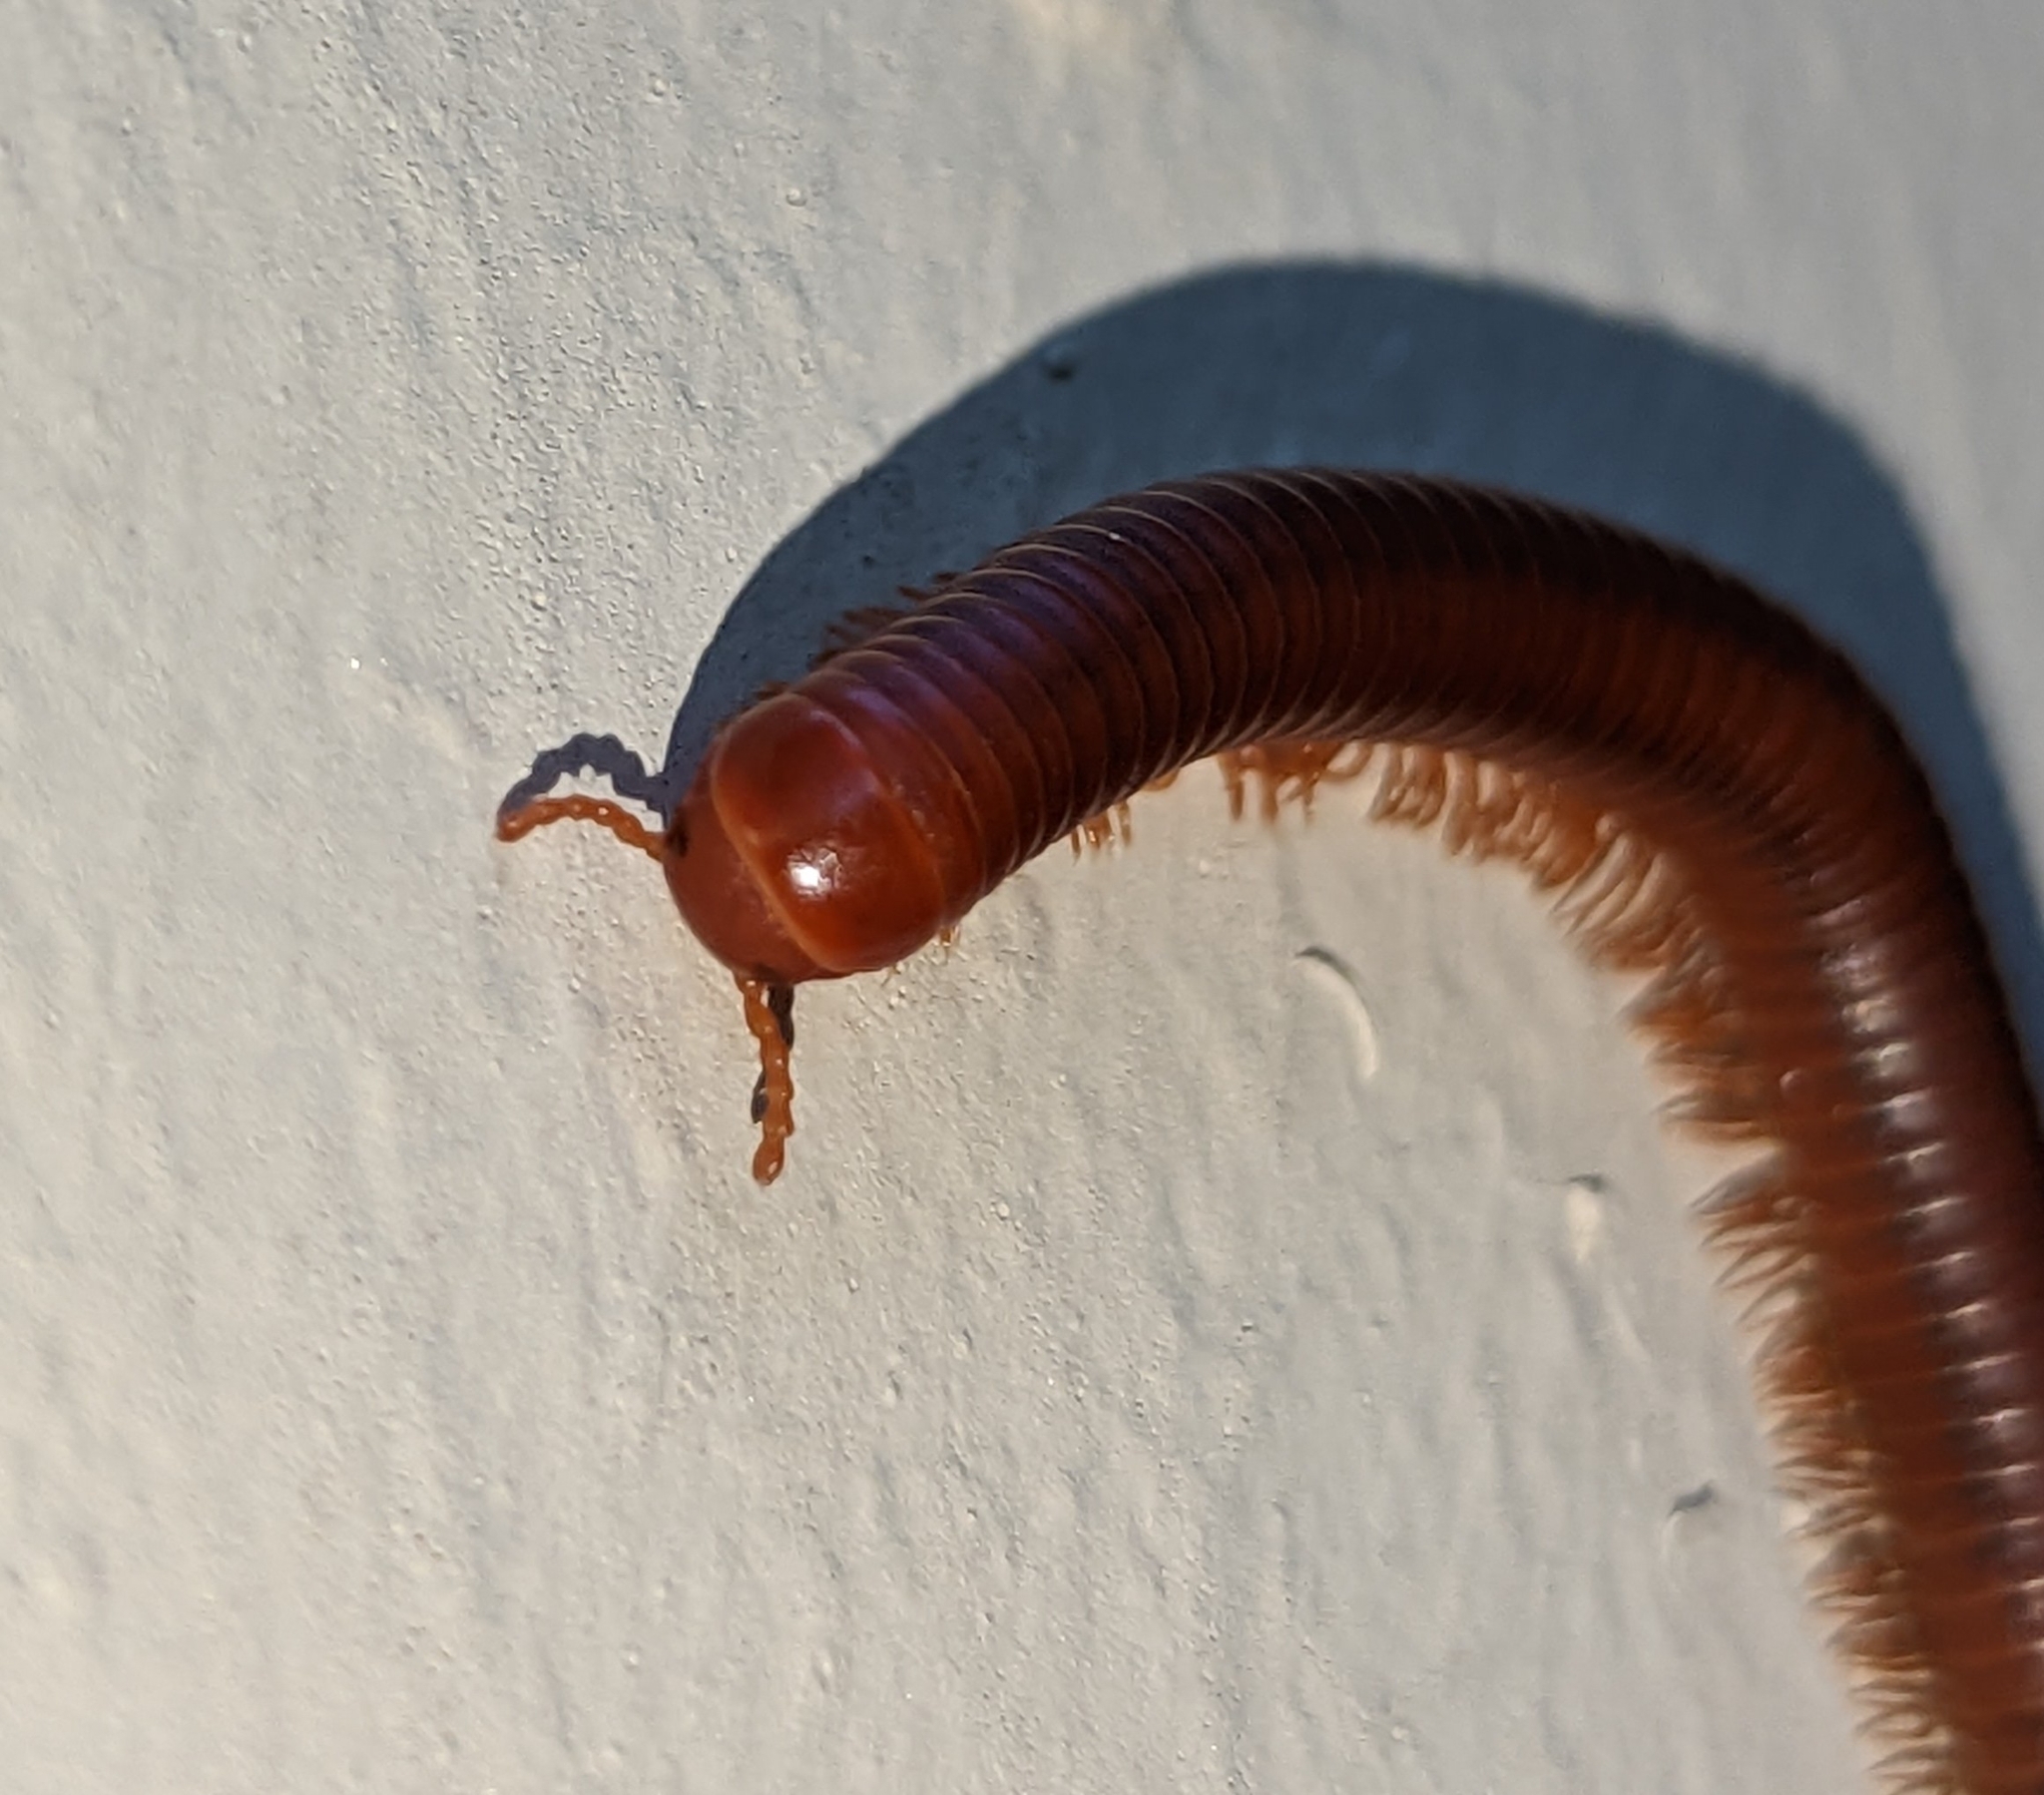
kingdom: Animalia
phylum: Arthropoda
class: Diplopoda
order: Spirobolida
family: Pachybolidae
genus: Trigoniulus
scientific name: Trigoniulus corallinus
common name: Millipede
